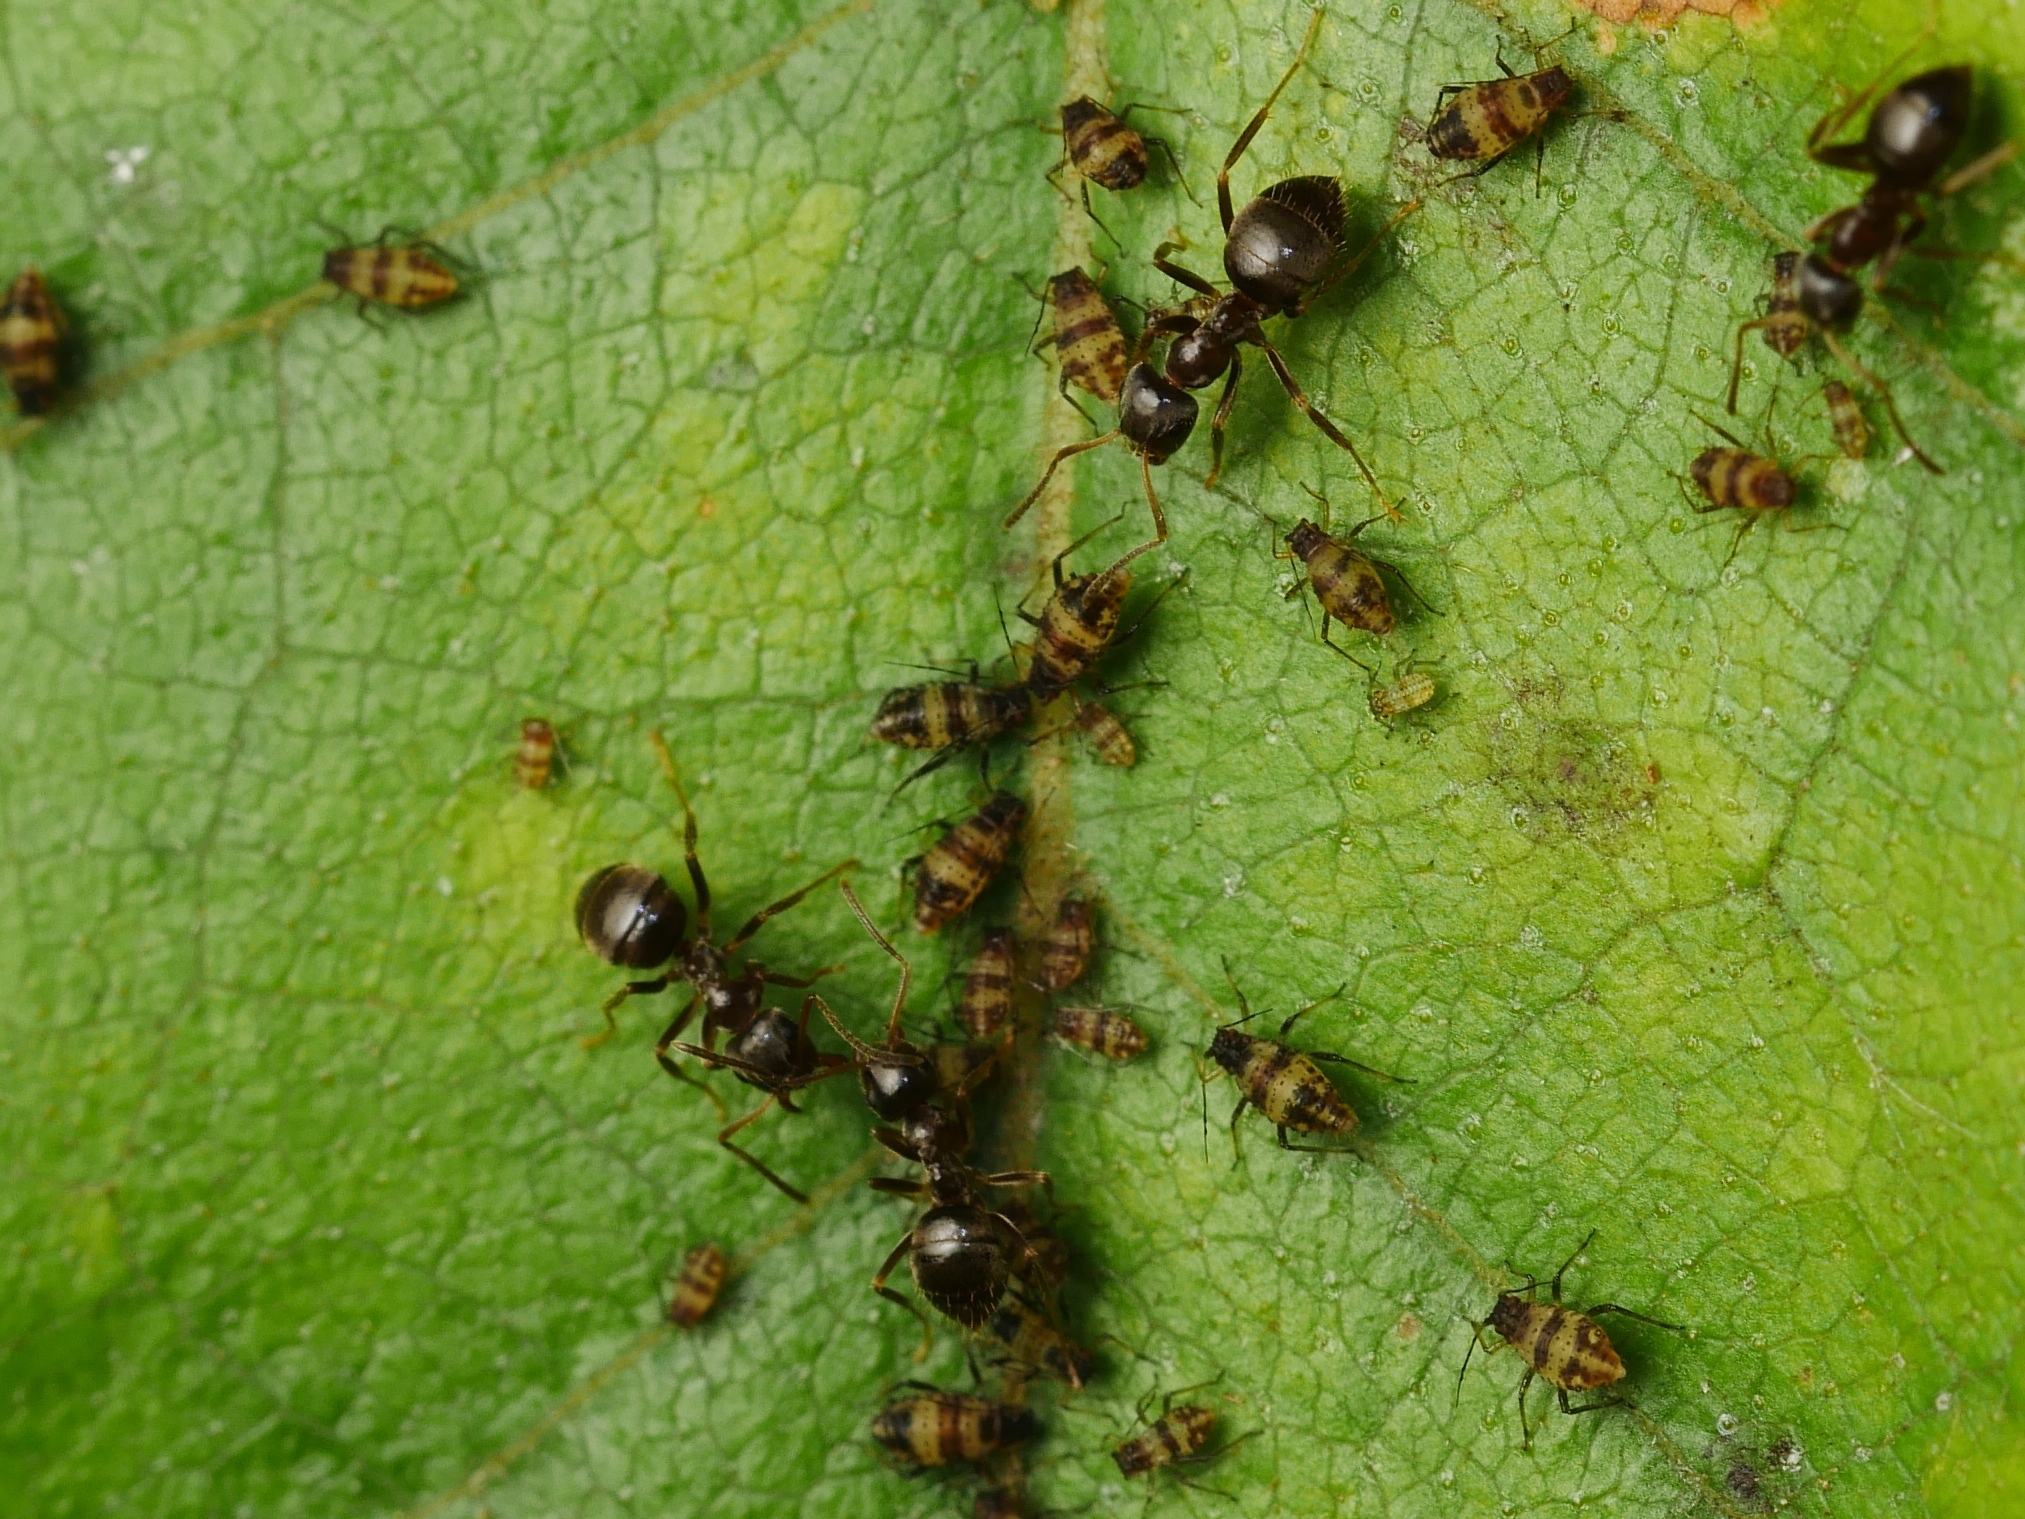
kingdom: Animalia
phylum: Arthropoda
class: Insecta
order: Hemiptera
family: Aphididae
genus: Callipterinella
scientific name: Callipterinella tuberculata
